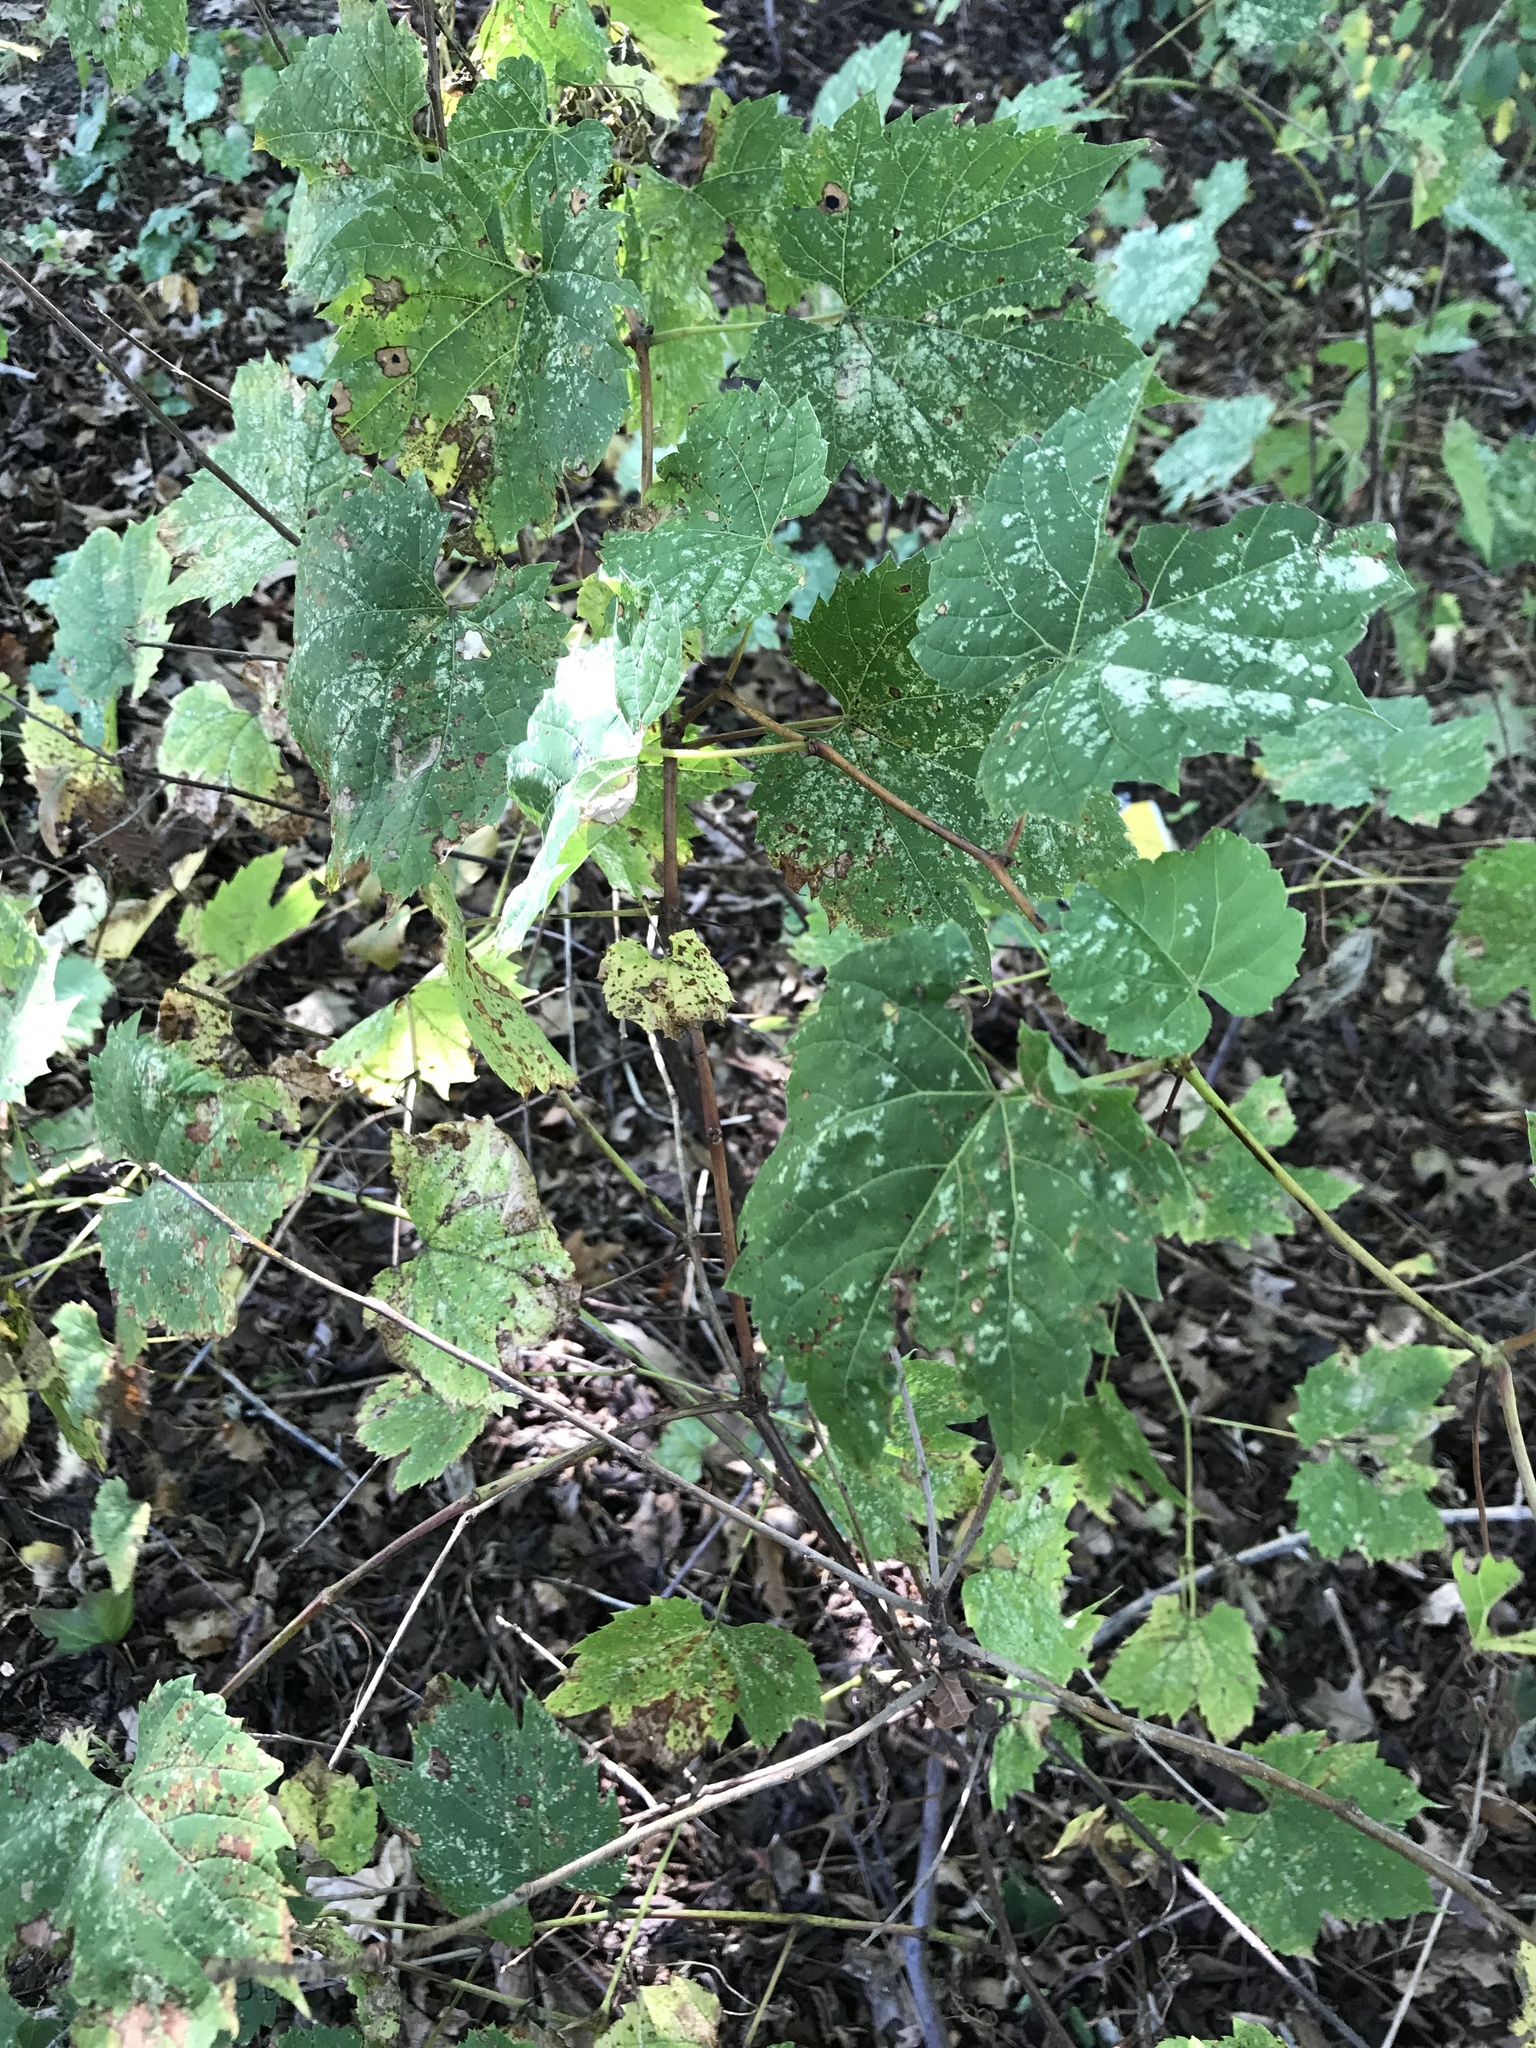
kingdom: Plantae
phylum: Tracheophyta
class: Magnoliopsida
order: Vitales
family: Vitaceae
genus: Vitis
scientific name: Vitis riparia
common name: Frost grape
